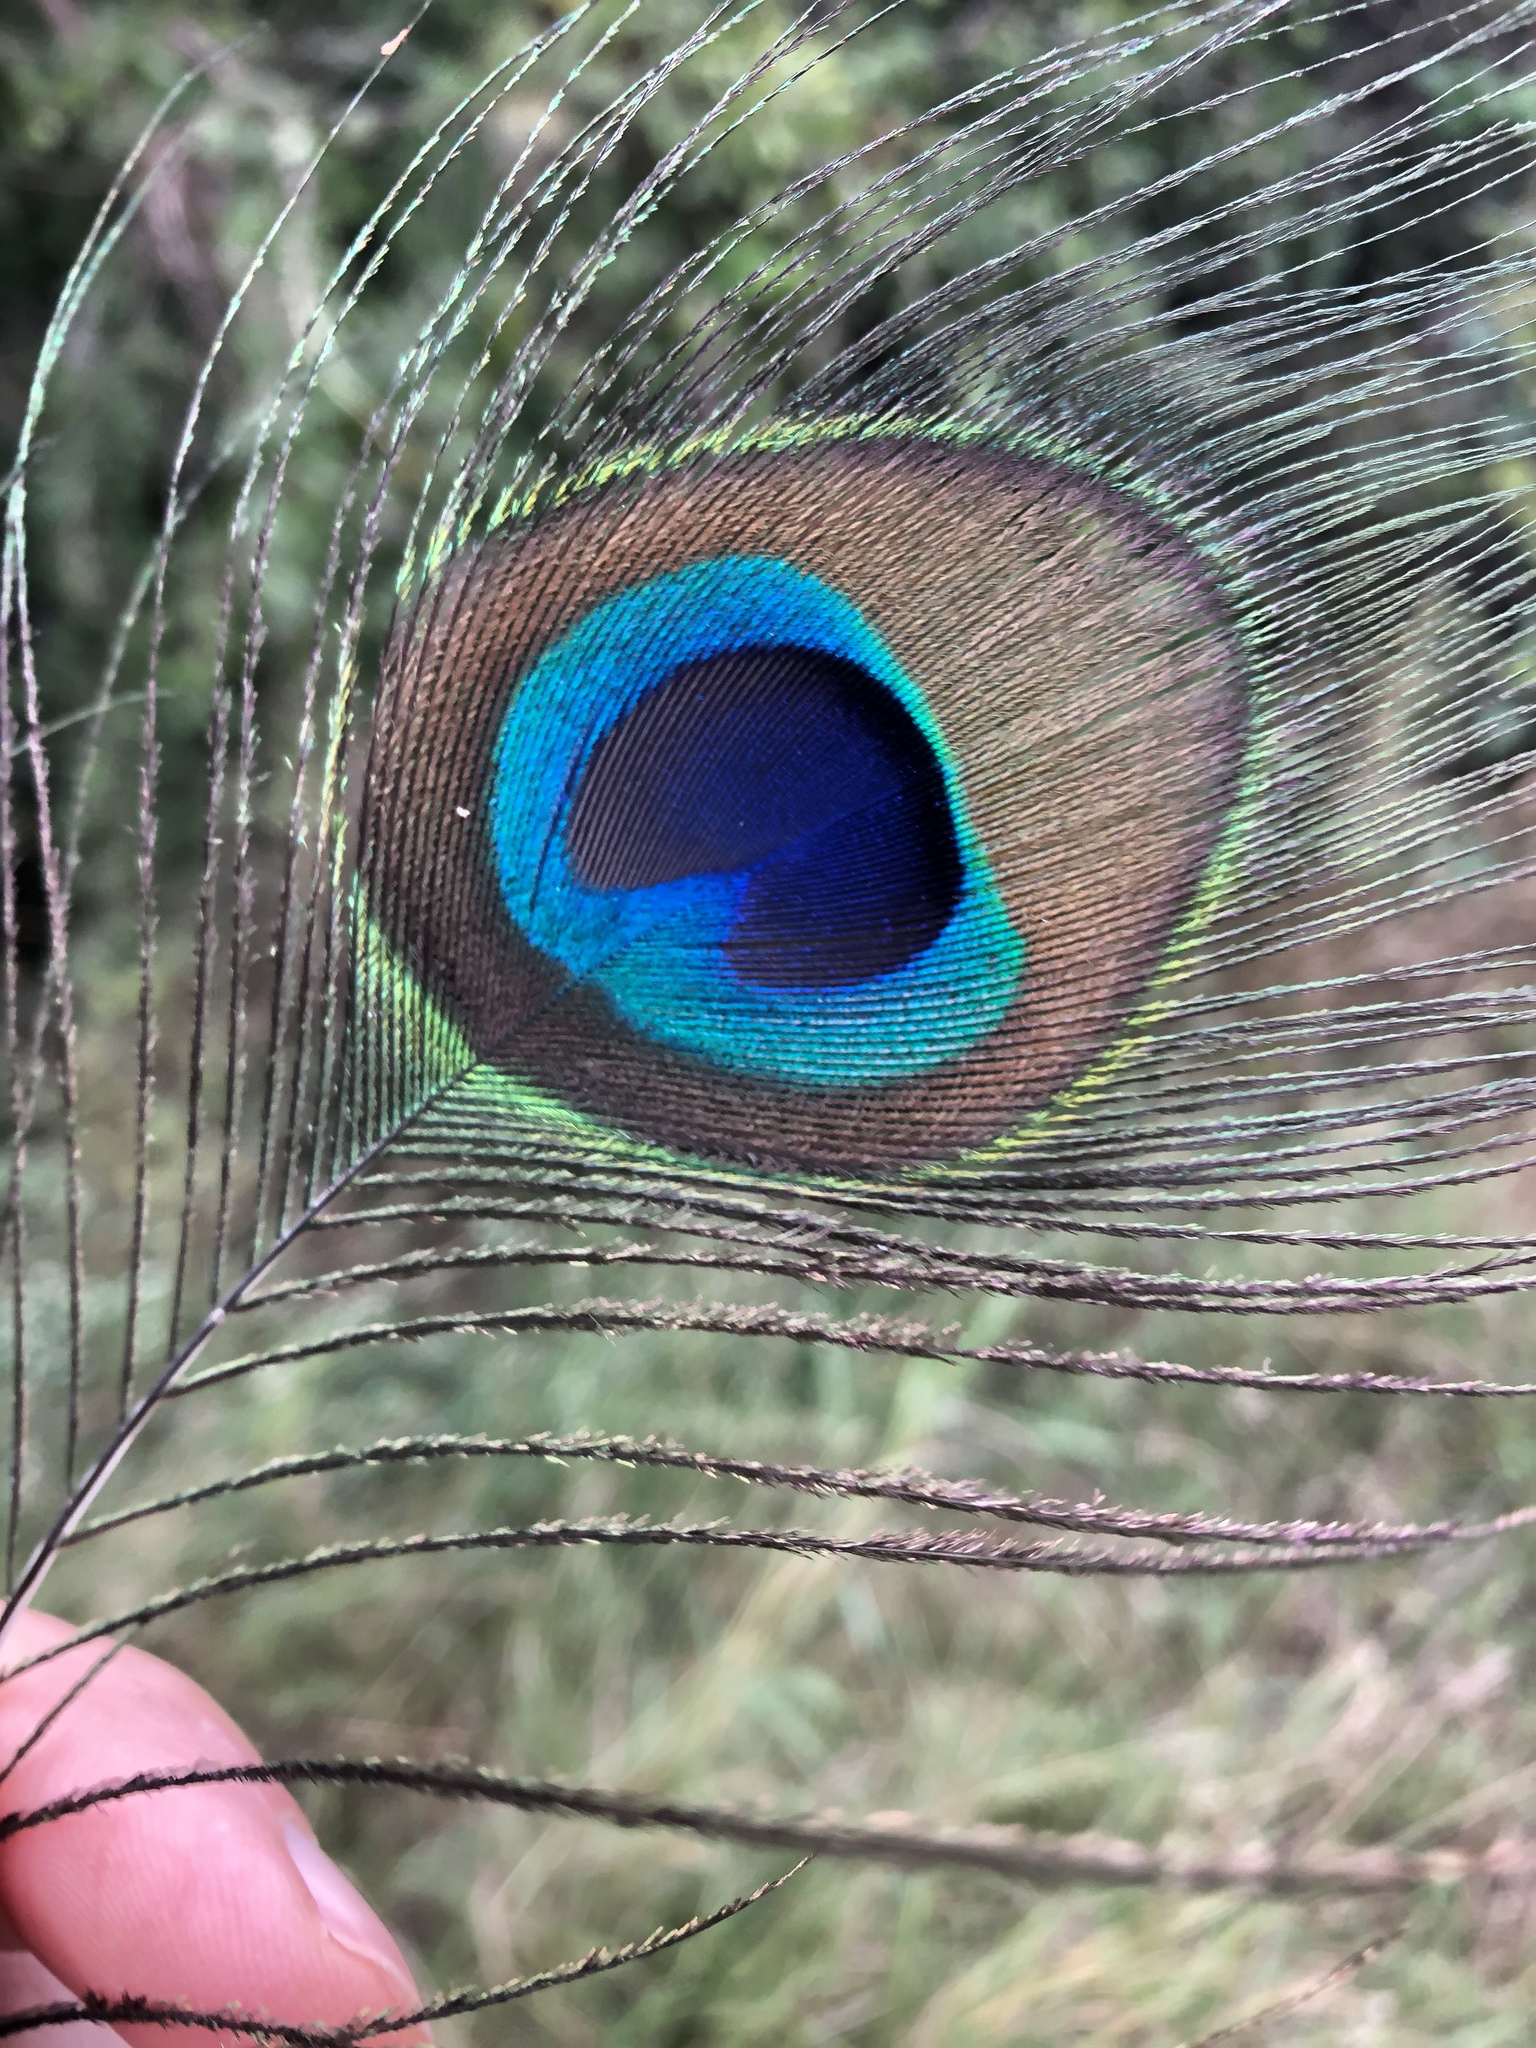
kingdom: Animalia
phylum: Chordata
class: Aves
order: Galliformes
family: Phasianidae
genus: Pavo
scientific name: Pavo cristatus
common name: Indian peafowl
